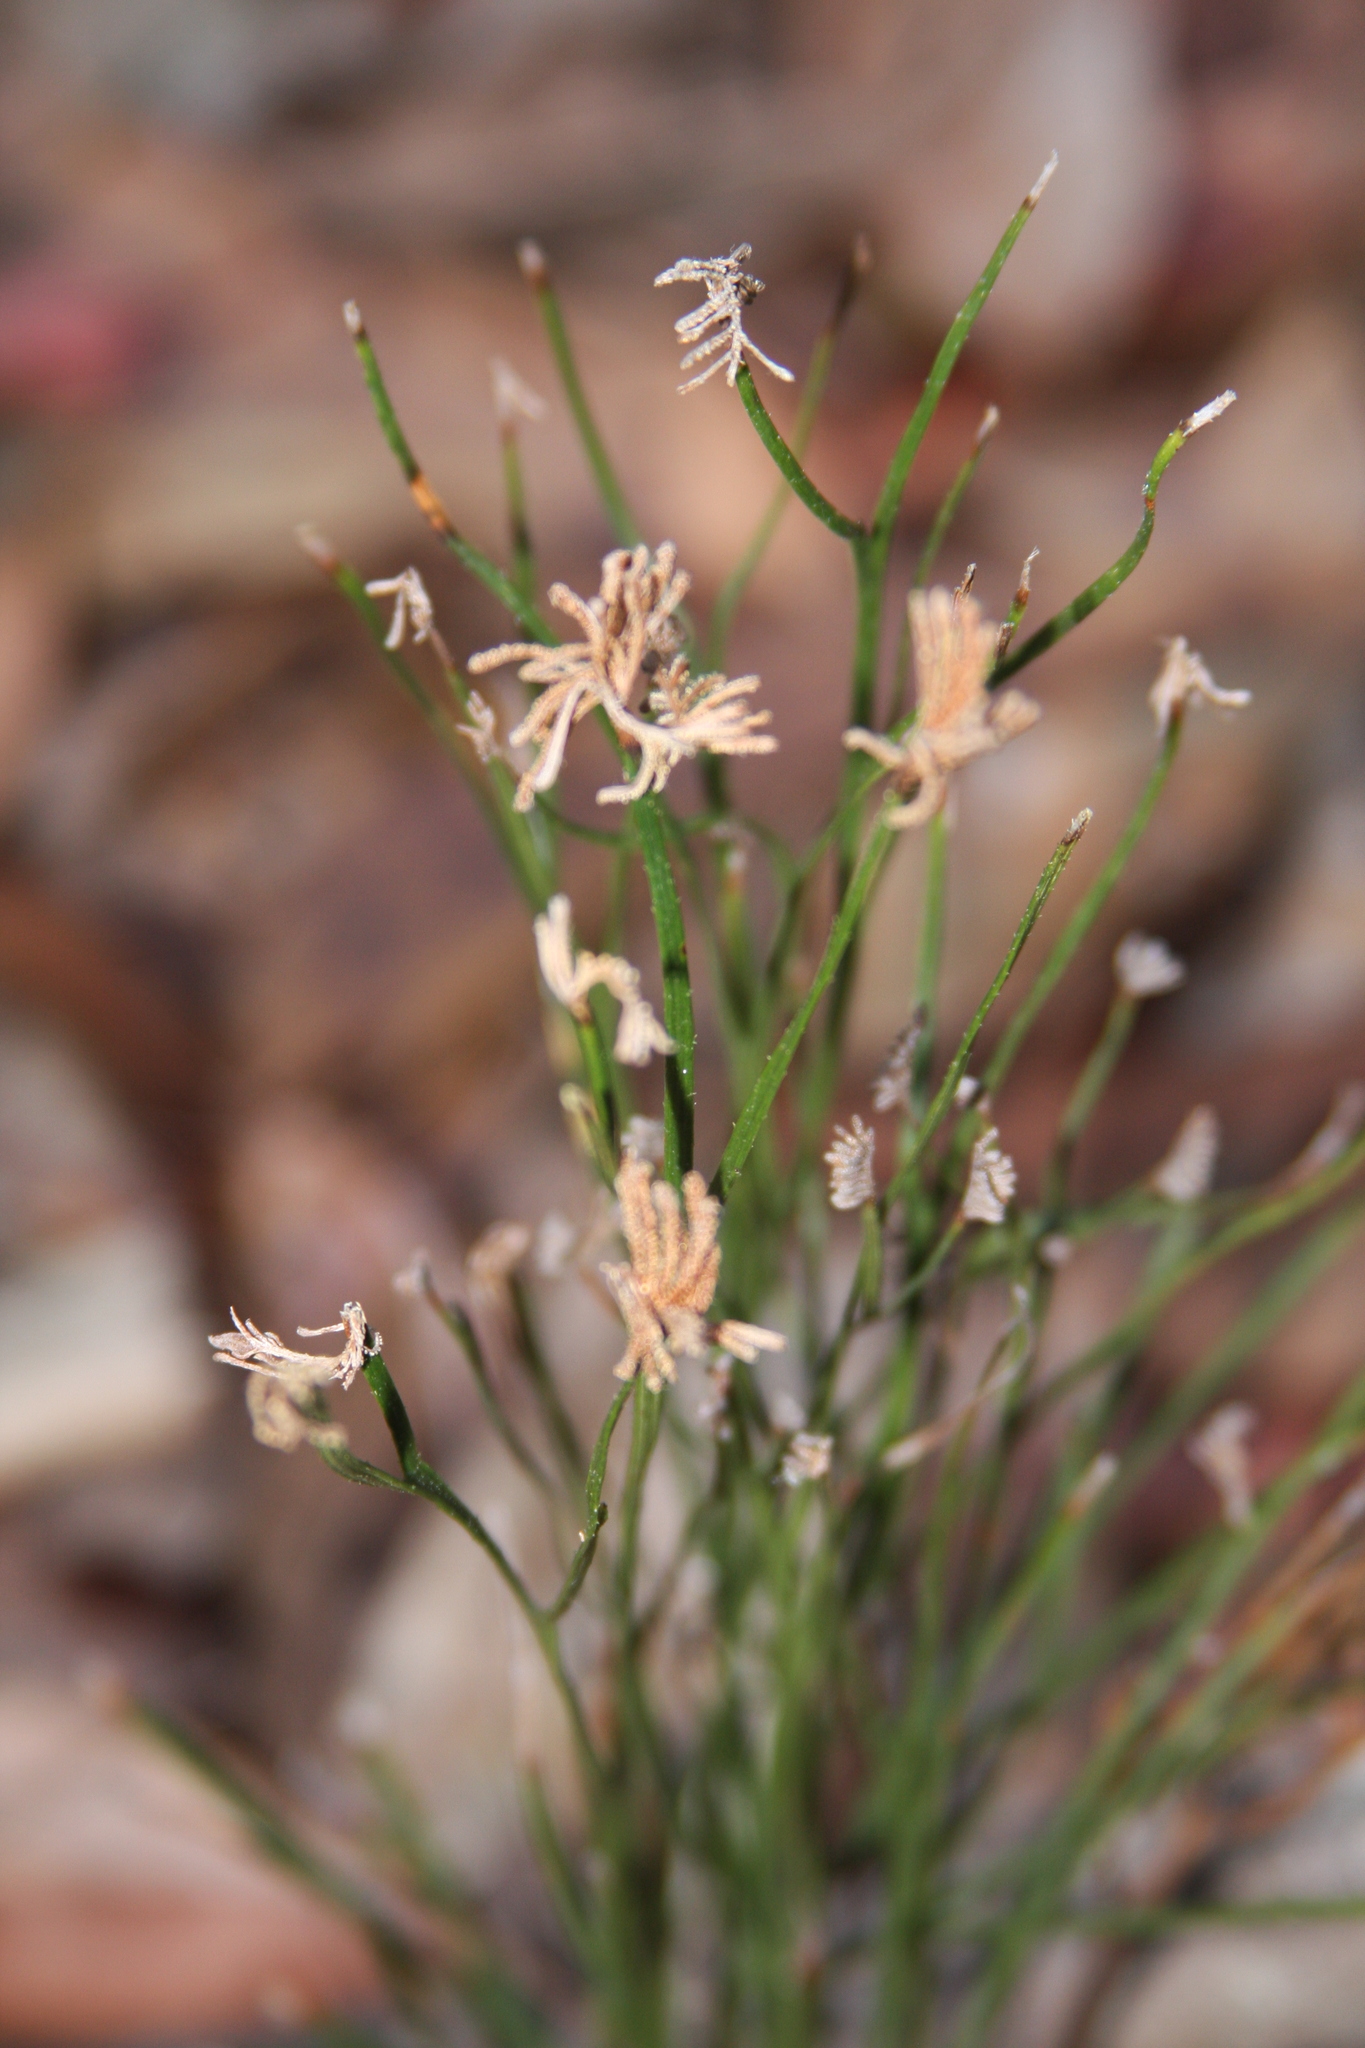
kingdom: Plantae
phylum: Tracheophyta
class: Polypodiopsida
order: Schizaeales
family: Schizaeaceae
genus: Schizaea
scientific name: Schizaea bifida
